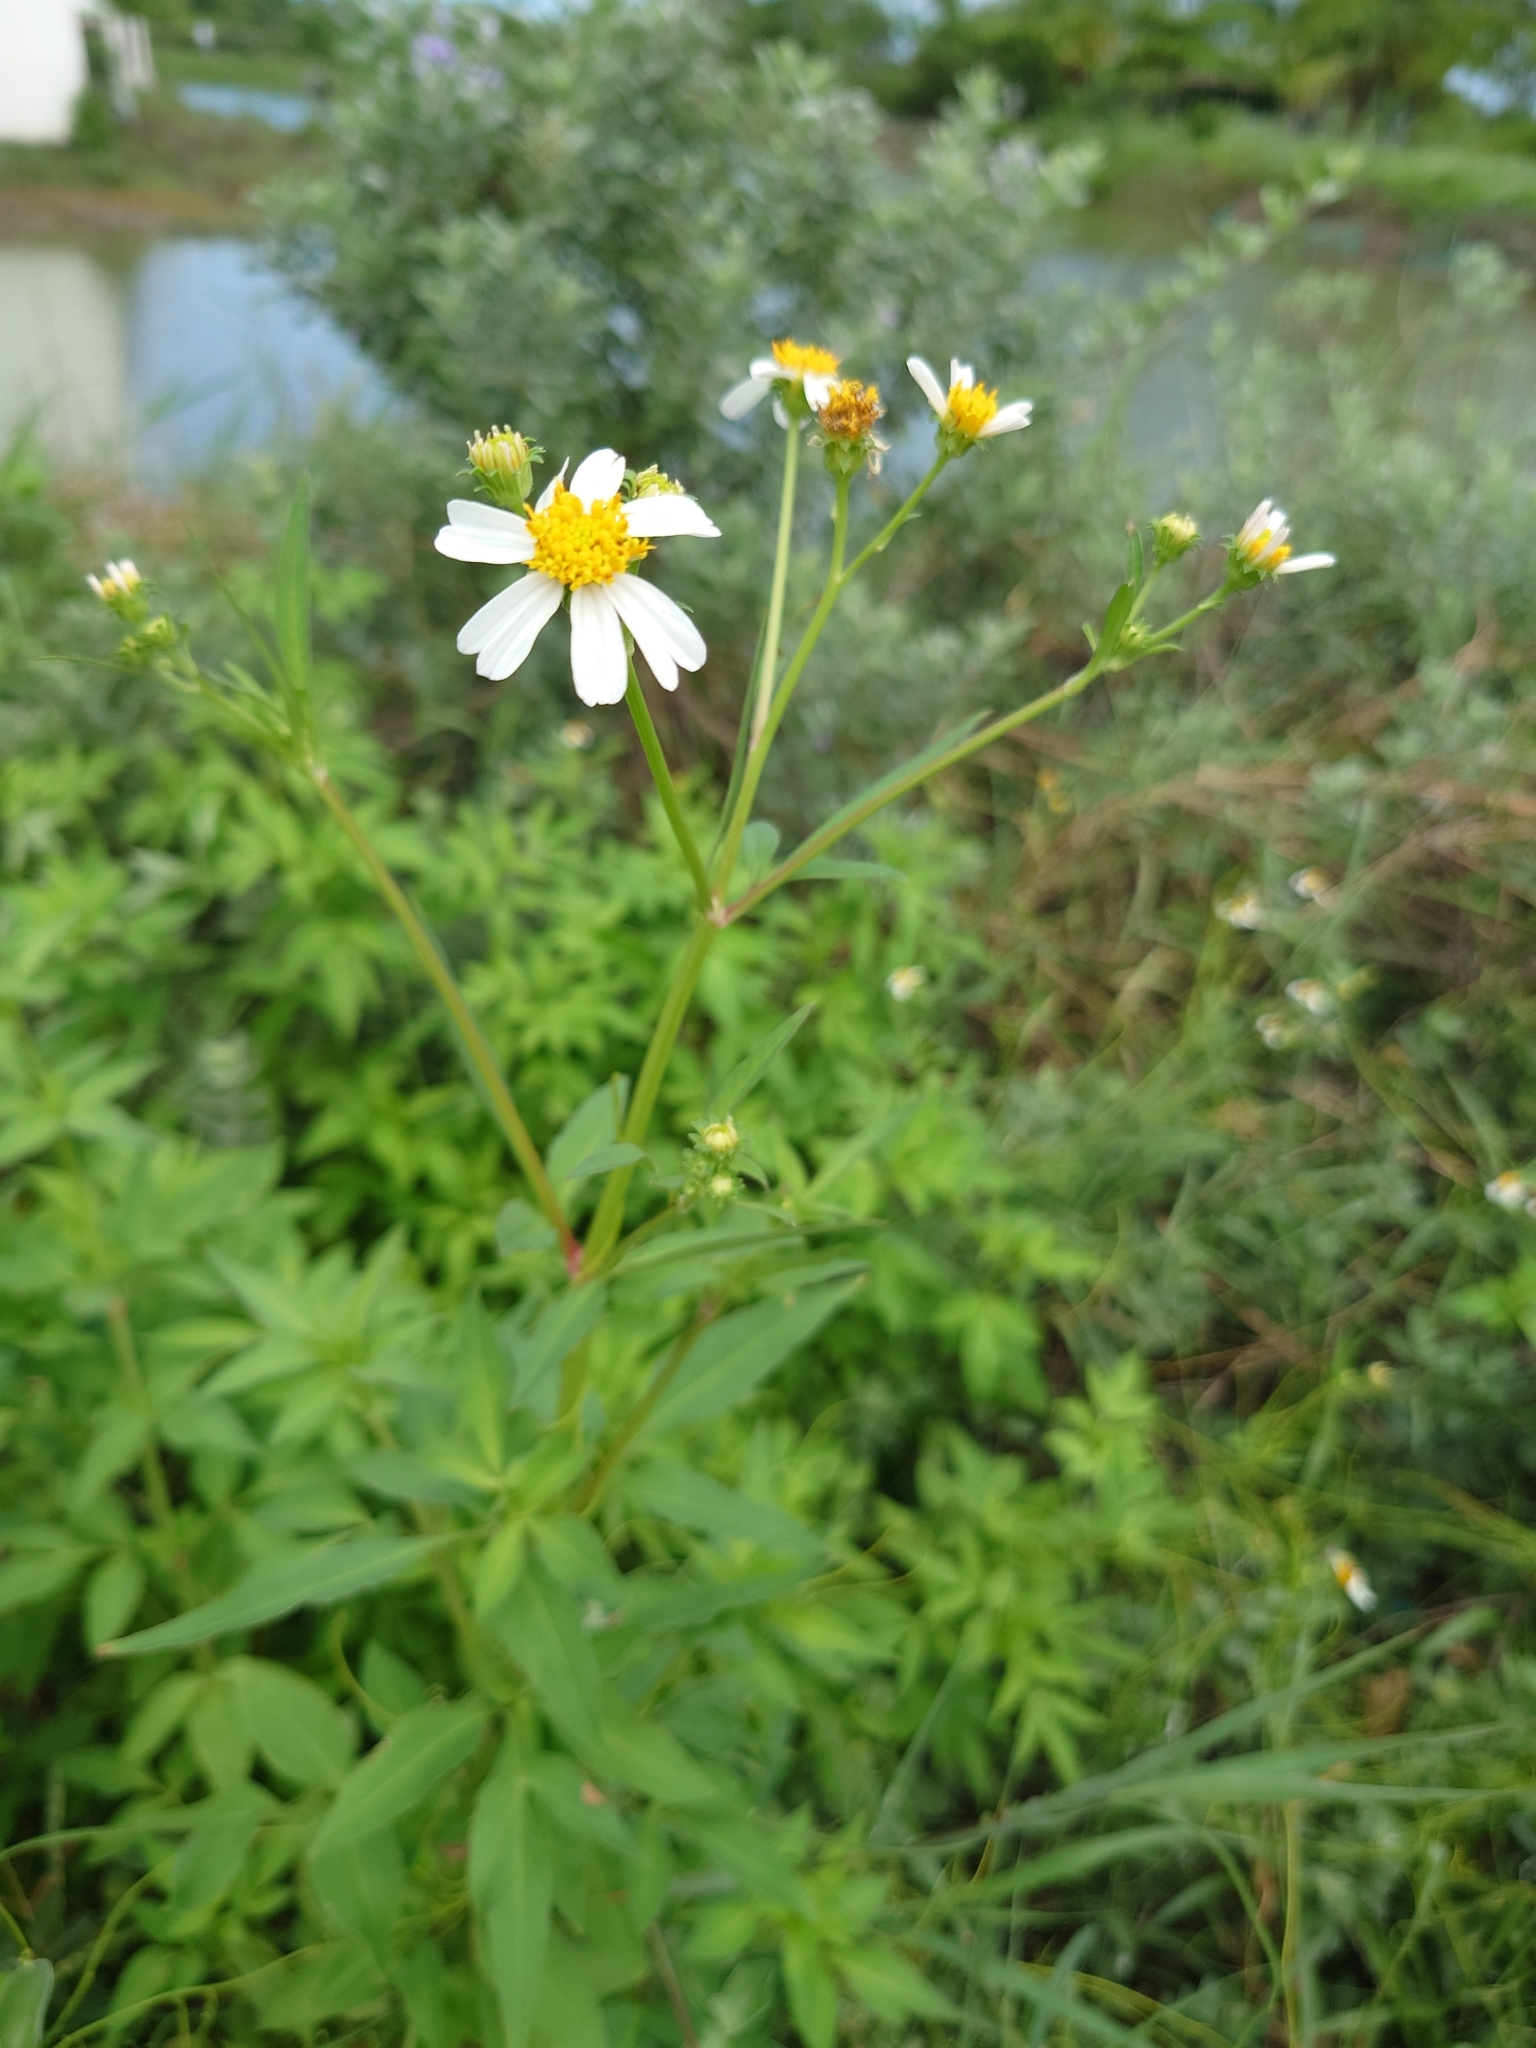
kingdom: Plantae
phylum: Tracheophyta
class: Magnoliopsida
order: Asterales
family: Asteraceae
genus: Bidens
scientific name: Bidens alba
